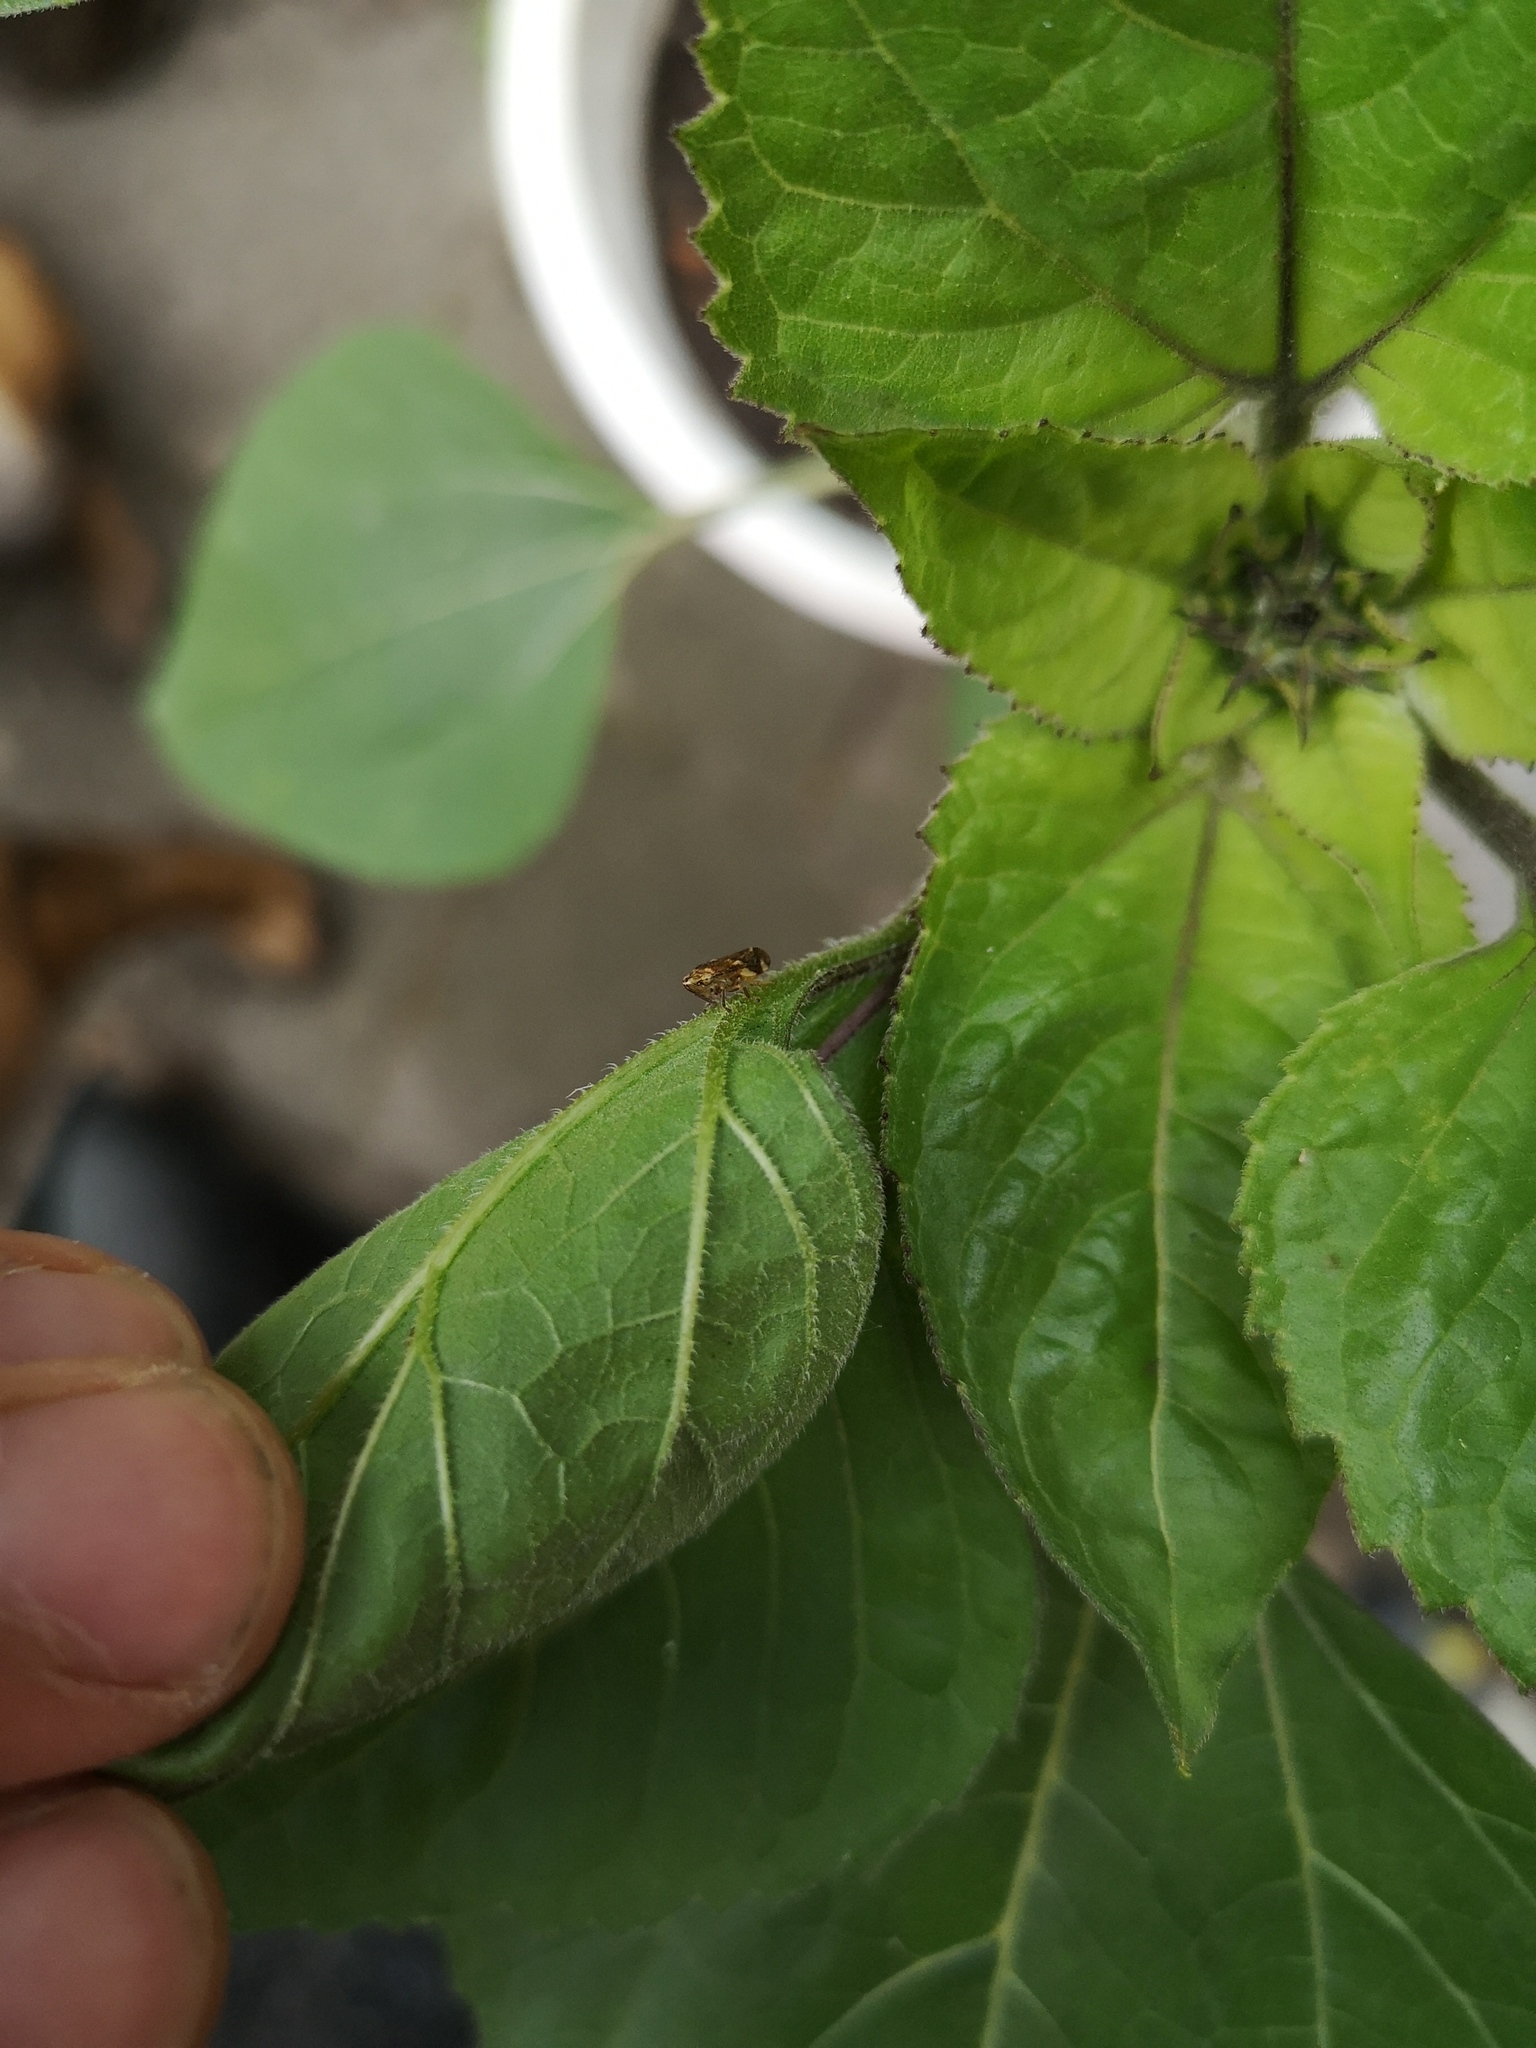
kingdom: Animalia
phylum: Arthropoda
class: Insecta
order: Hemiptera
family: Aphrophoridae
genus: Philaenus
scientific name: Philaenus spumarius
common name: Meadow spittlebug
